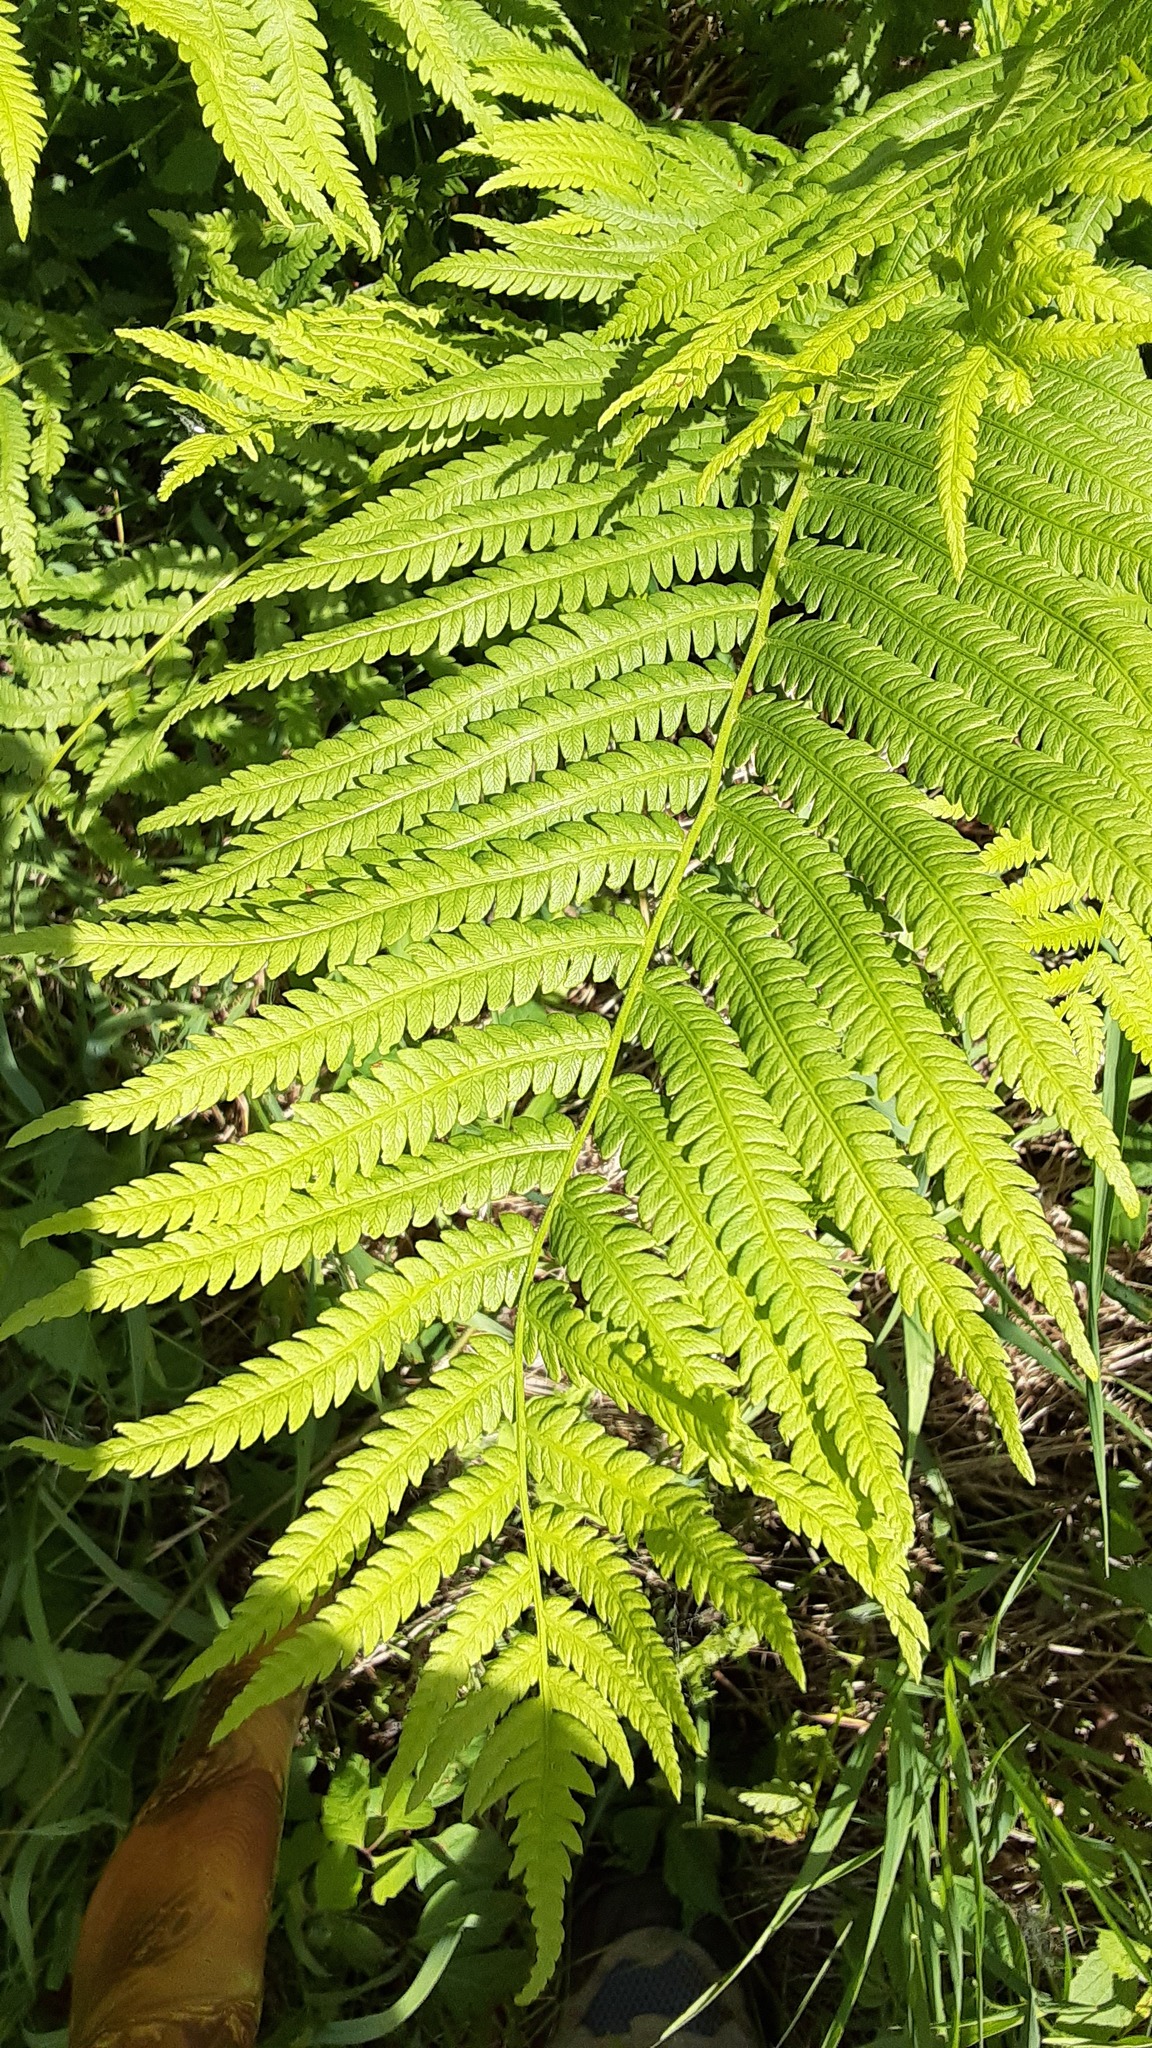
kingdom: Plantae
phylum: Tracheophyta
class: Polypodiopsida
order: Polypodiales
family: Onocleaceae
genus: Matteuccia
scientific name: Matteuccia struthiopteris
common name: Ostrich fern
